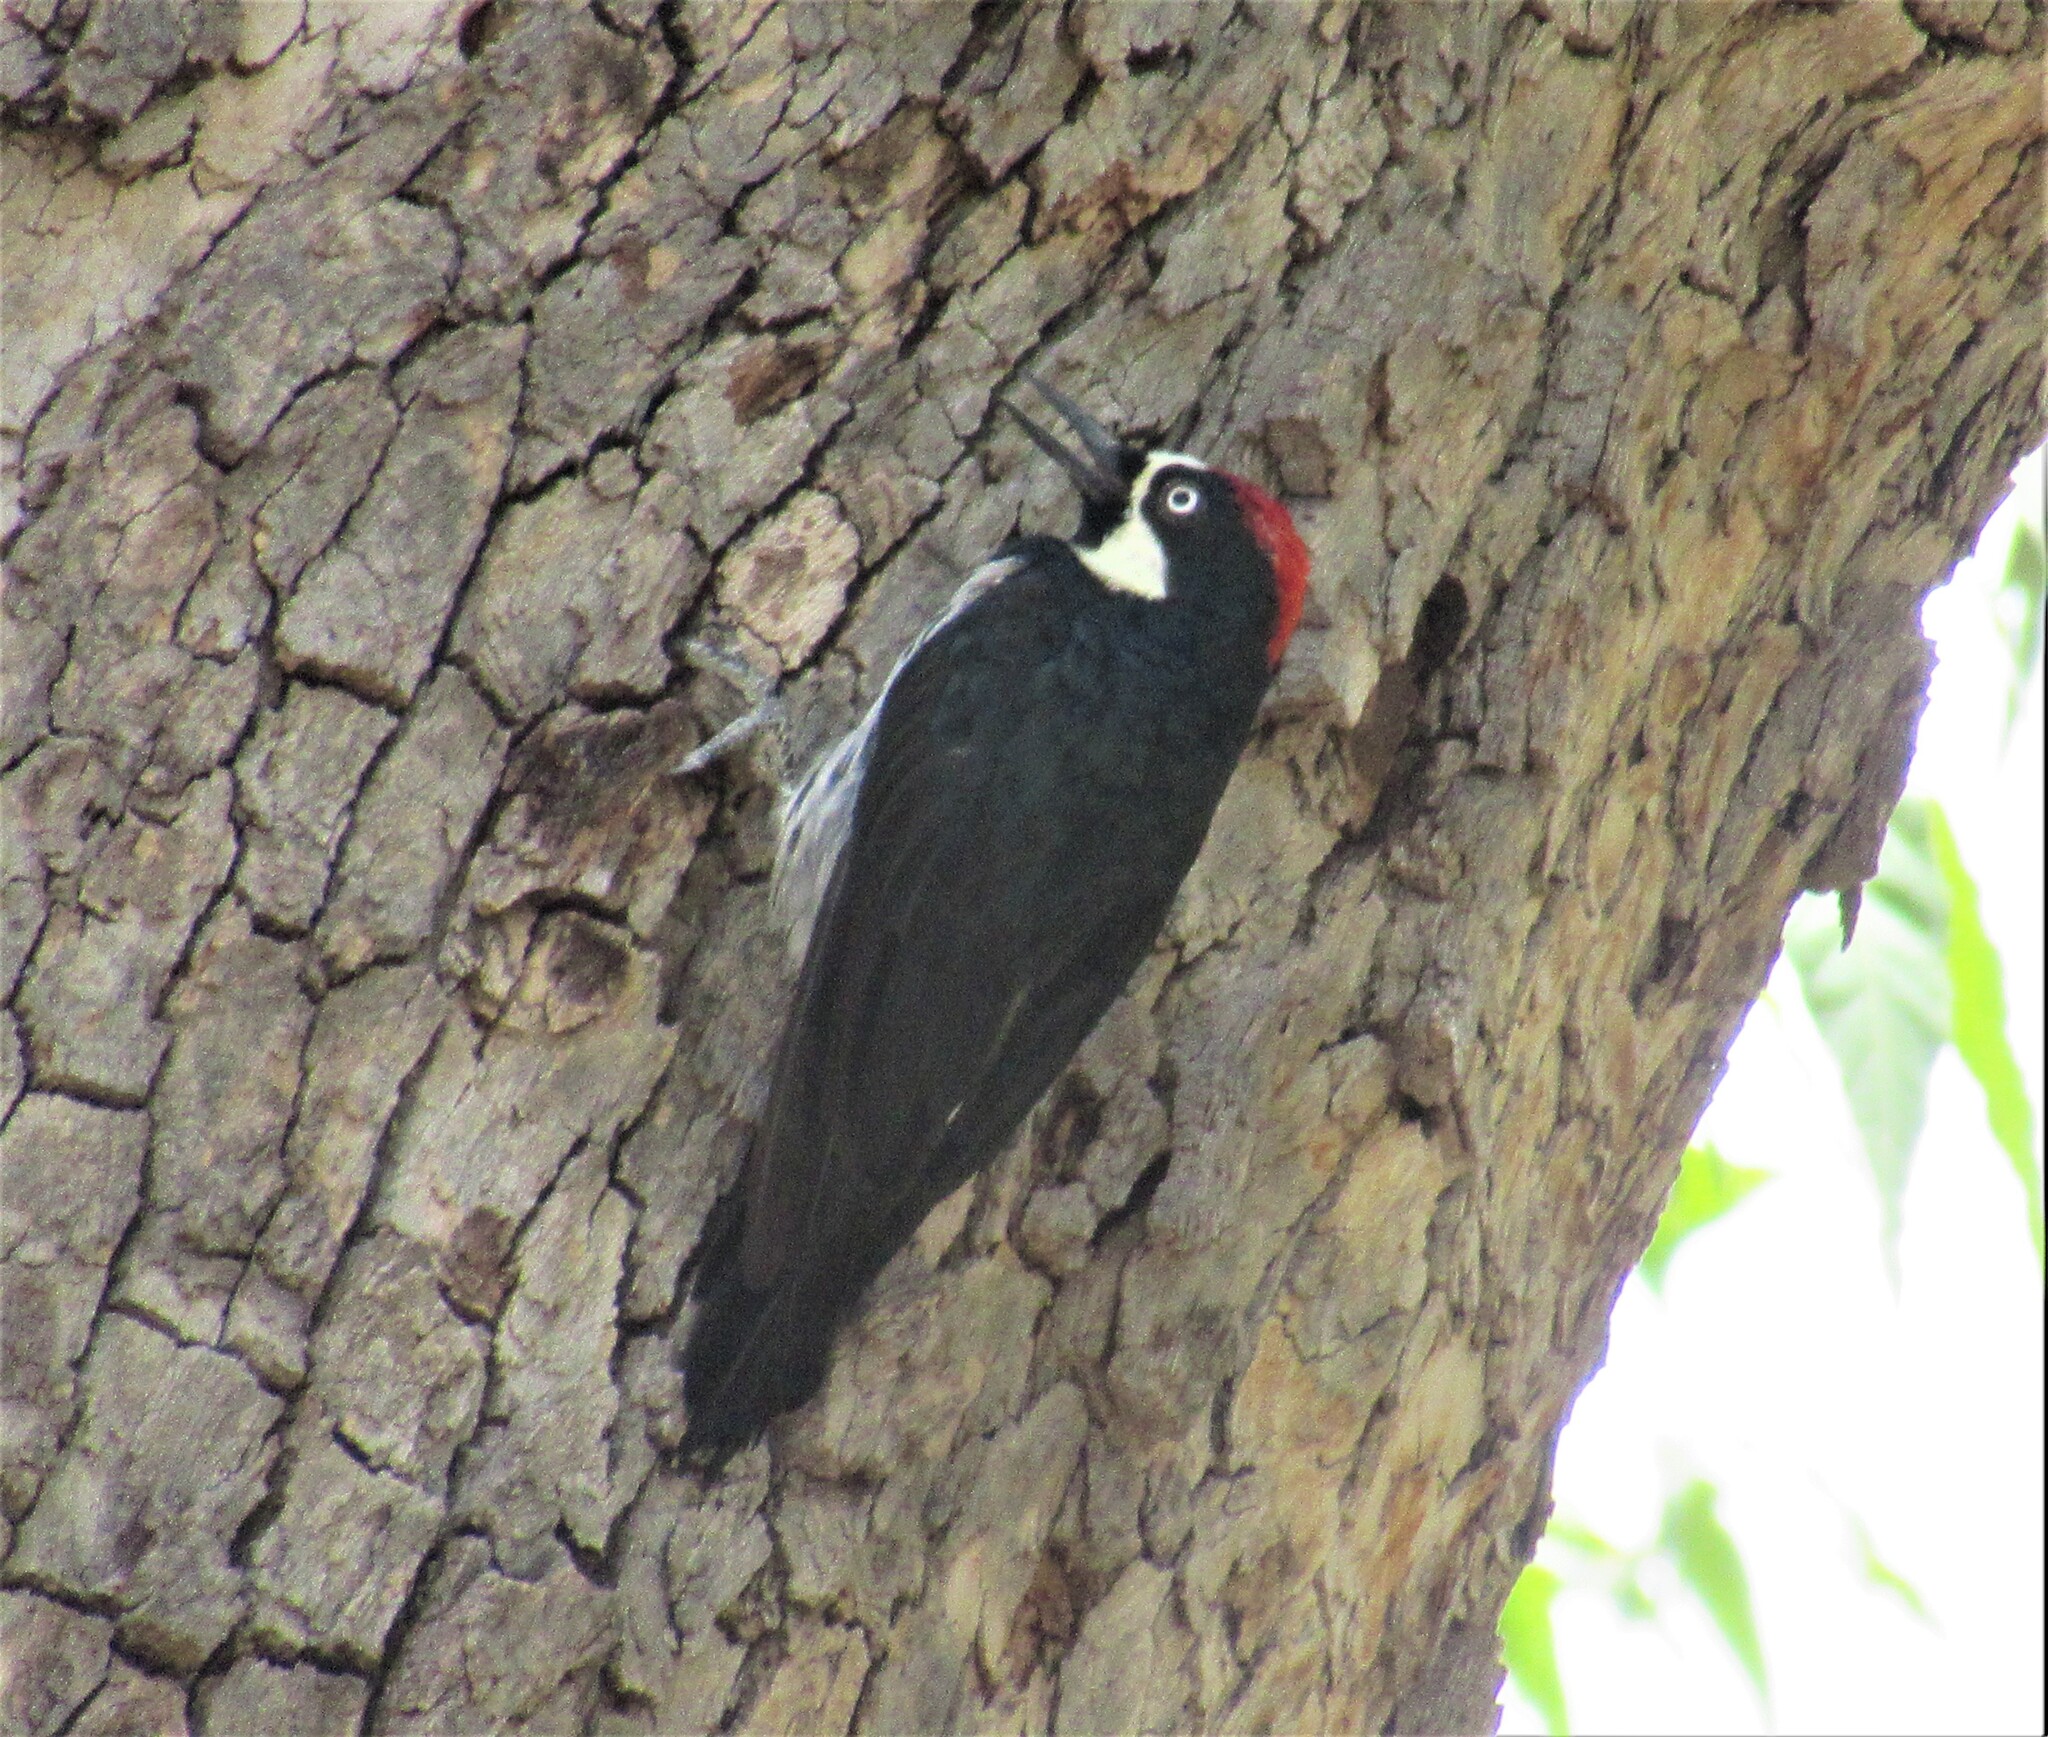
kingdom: Animalia
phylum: Chordata
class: Aves
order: Piciformes
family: Picidae
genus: Melanerpes
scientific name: Melanerpes formicivorus
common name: Acorn woodpecker
